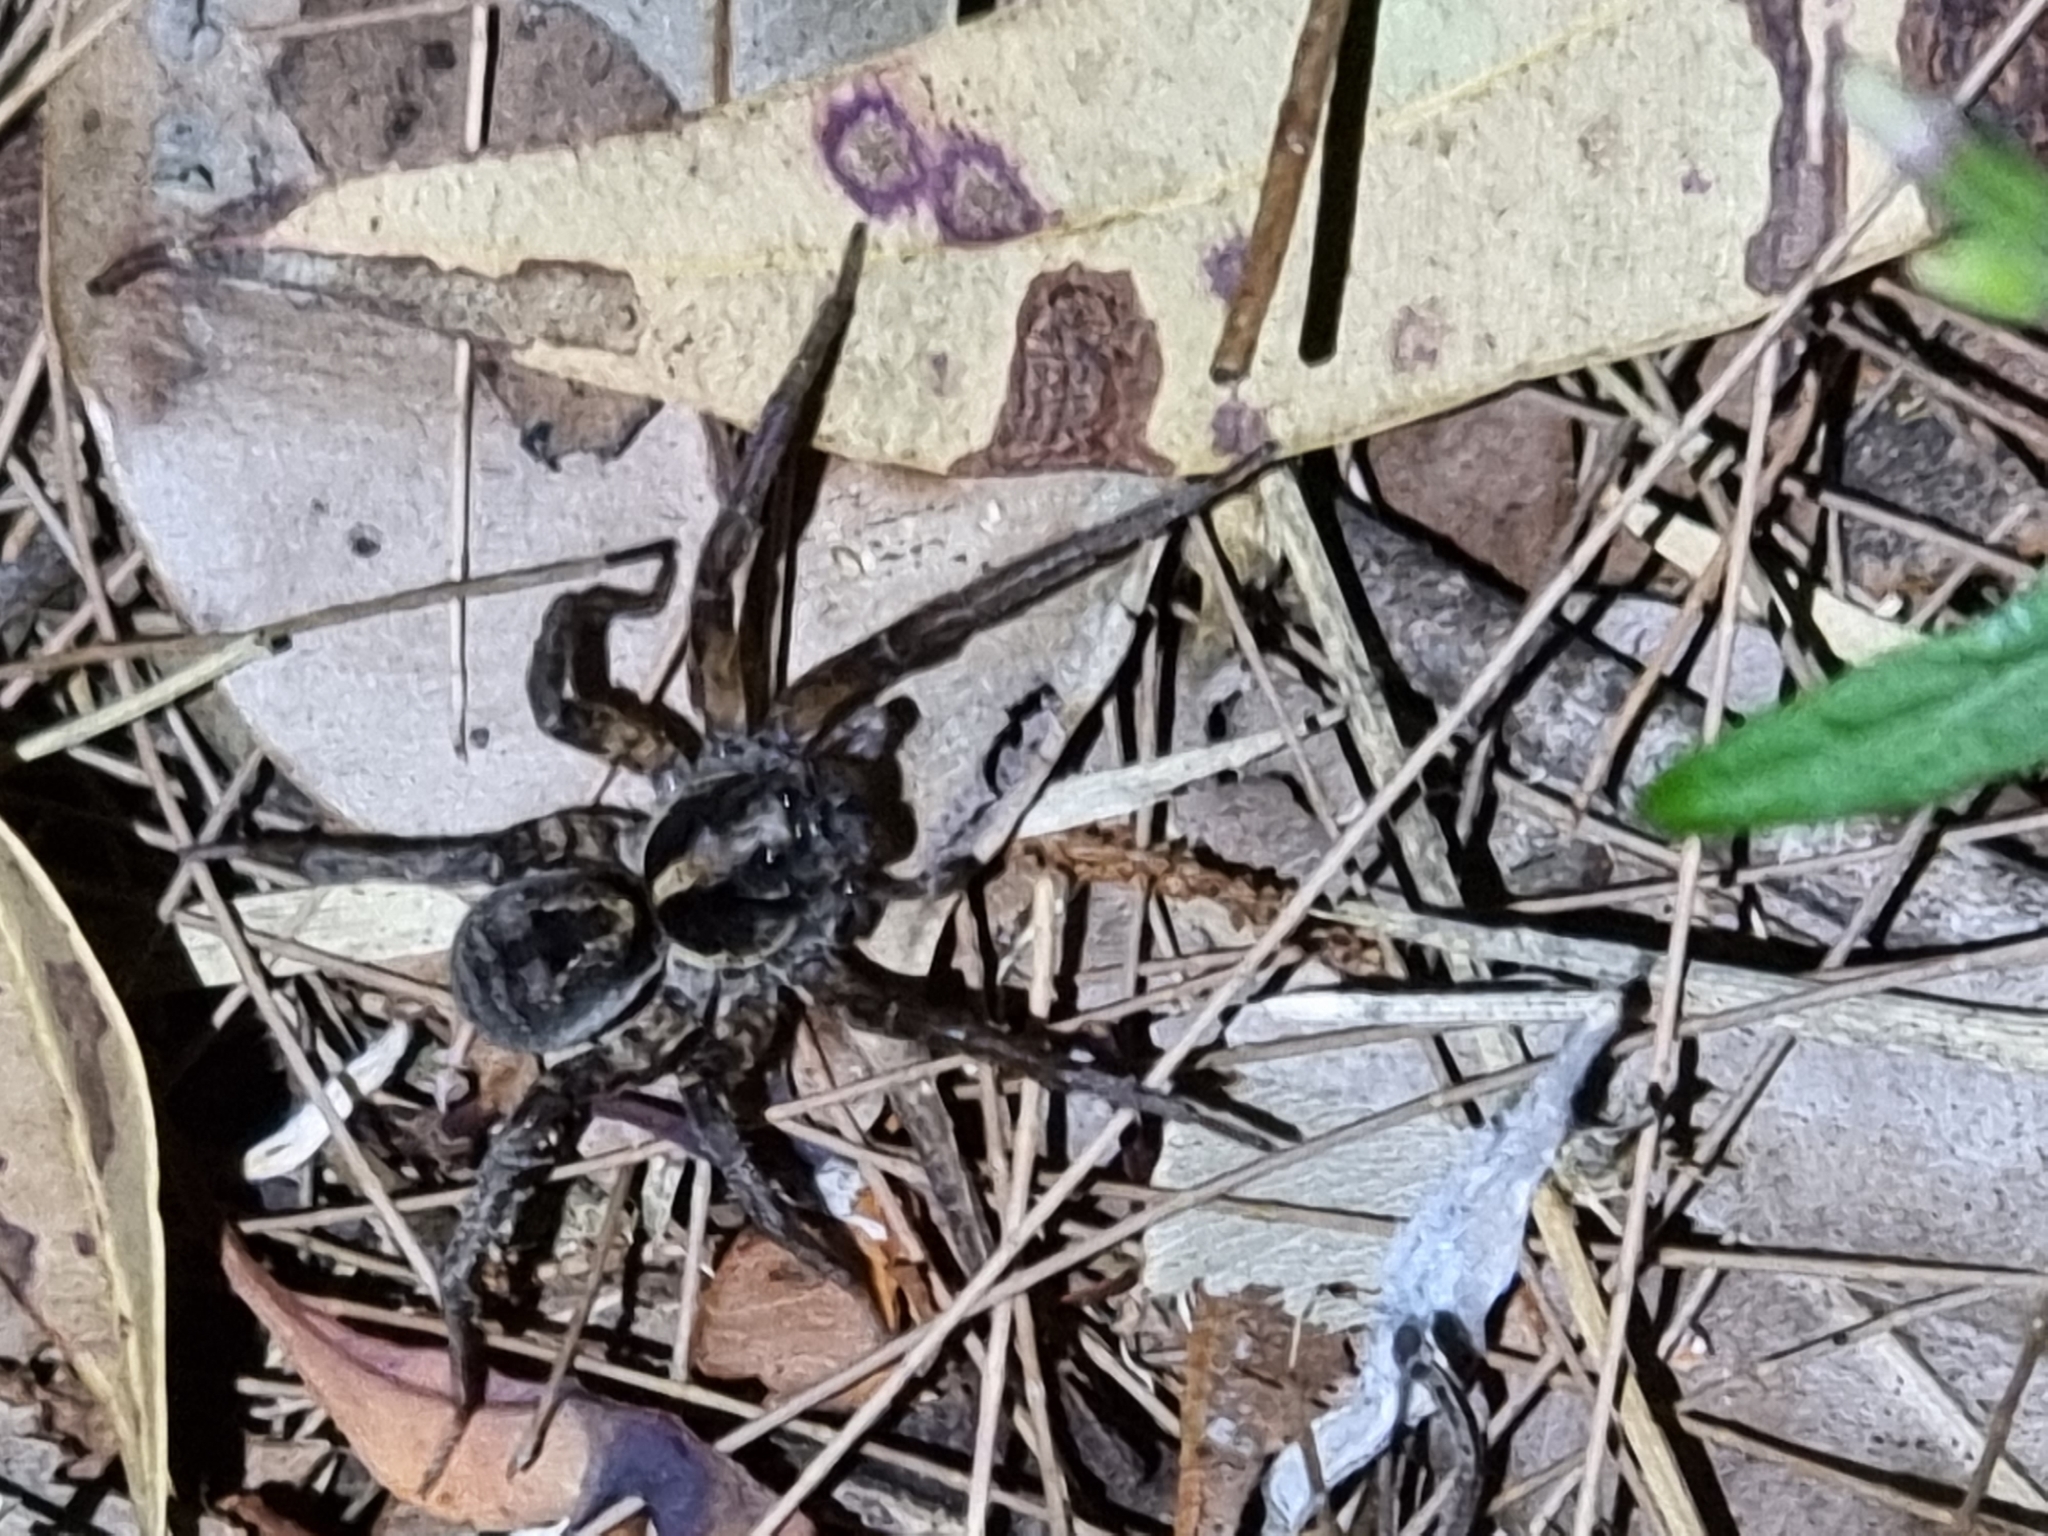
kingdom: Animalia
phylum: Arthropoda
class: Arachnida
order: Araneae
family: Lycosidae
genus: Venator
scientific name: Venator spenceri
